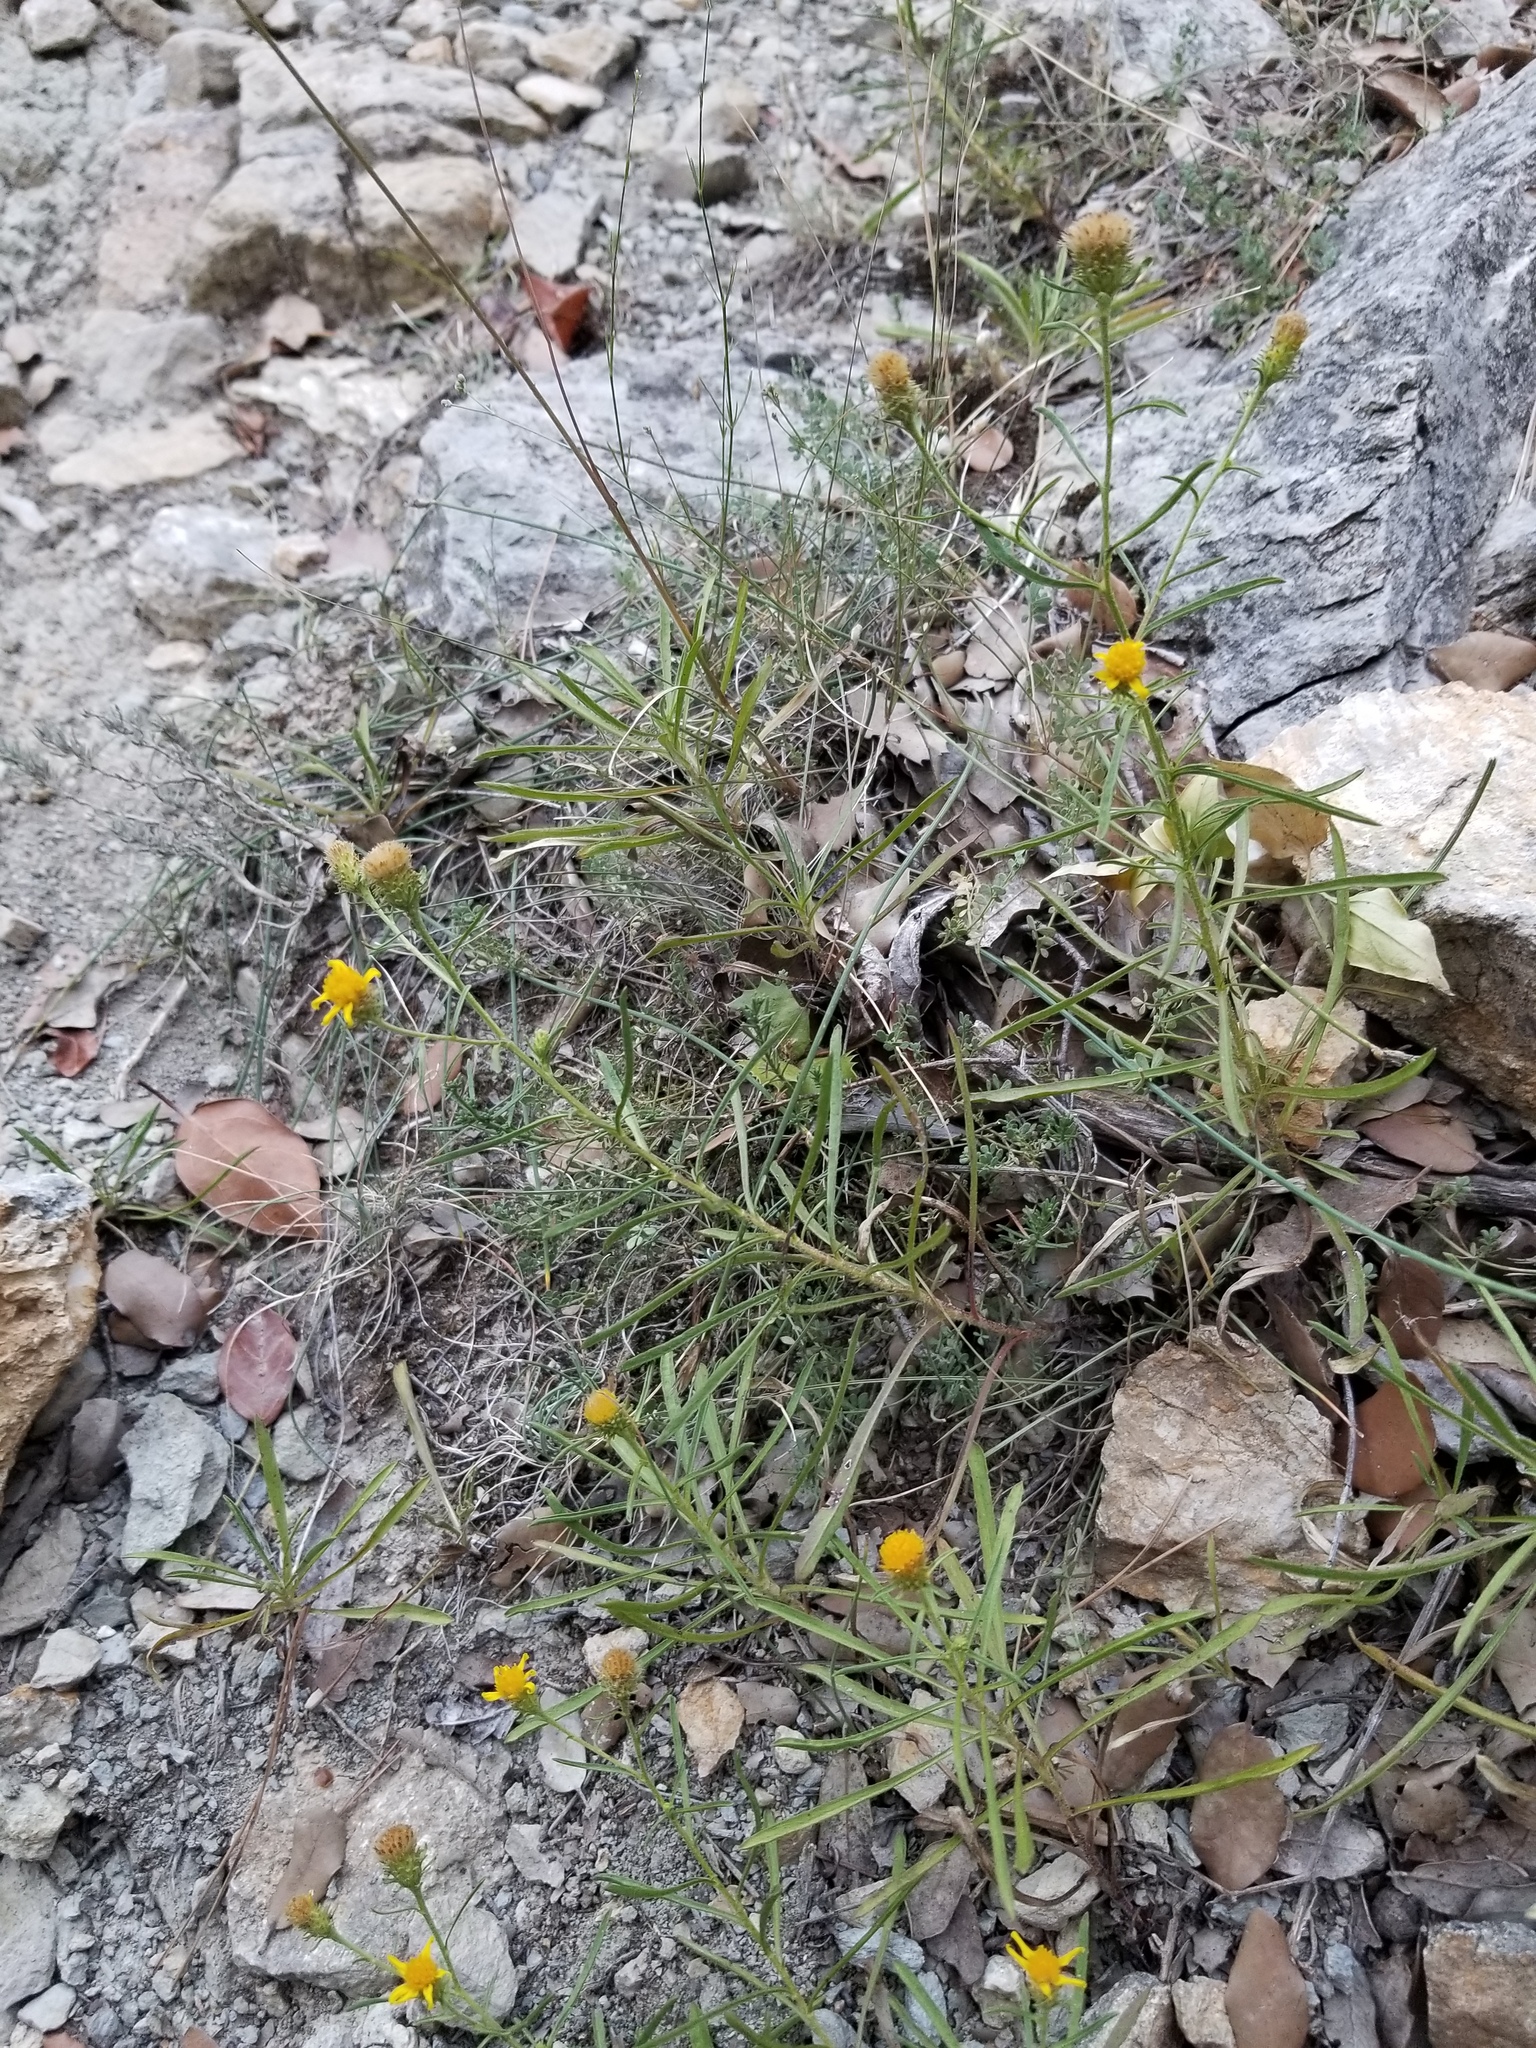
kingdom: Plantae
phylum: Tracheophyta
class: Magnoliopsida
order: Asterales
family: Asteraceae
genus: Jasonia
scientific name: Jasonia tuberosa
